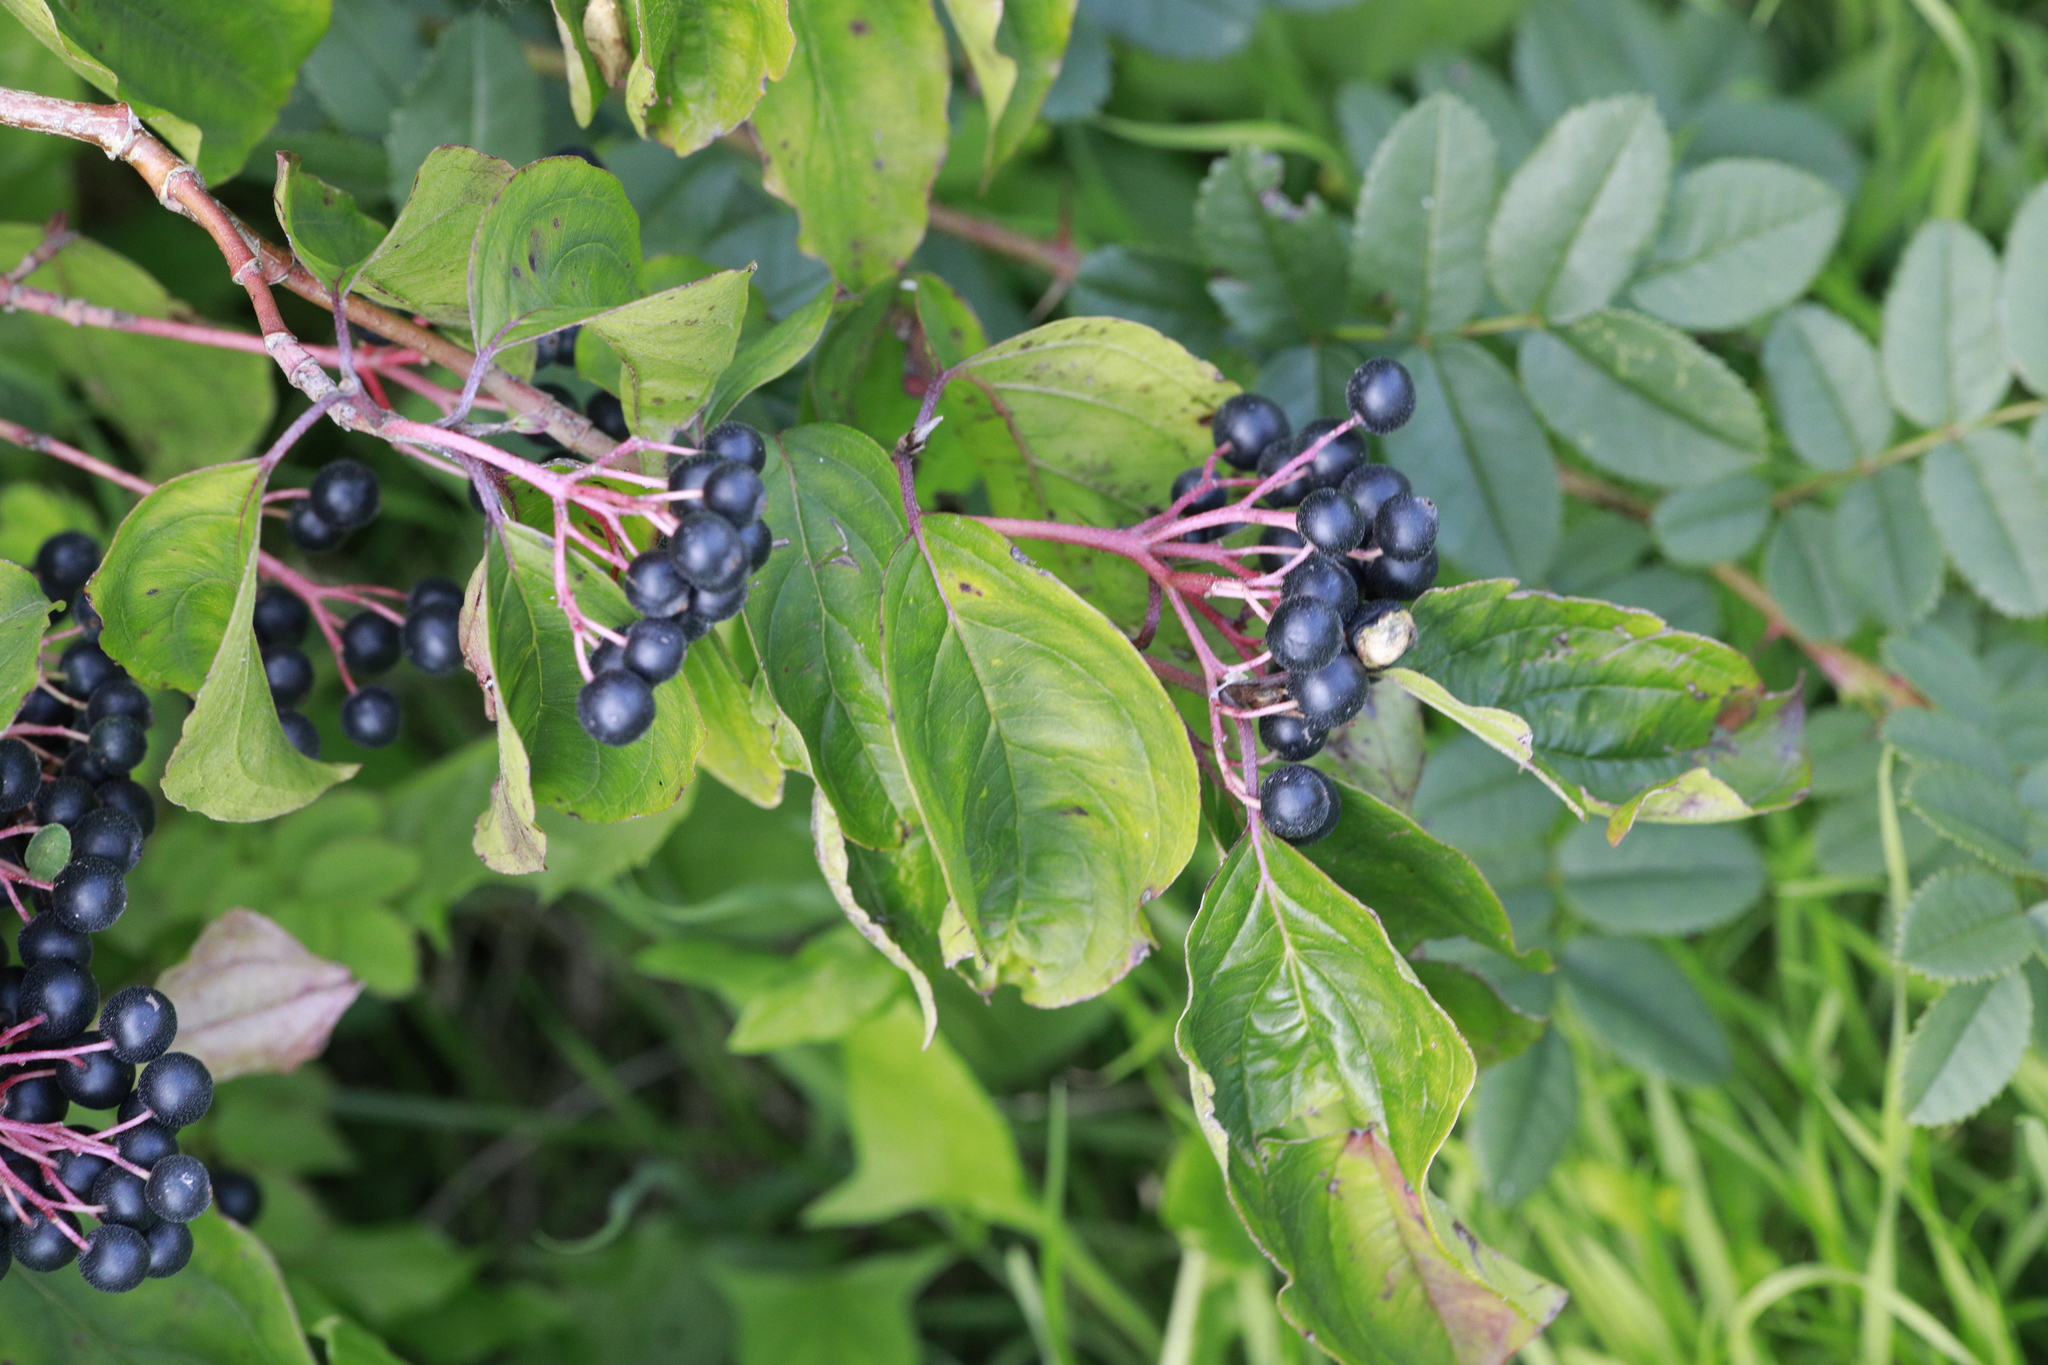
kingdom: Plantae
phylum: Tracheophyta
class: Magnoliopsida
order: Cornales
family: Cornaceae
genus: Cornus
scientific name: Cornus sanguinea
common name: Dogwood
